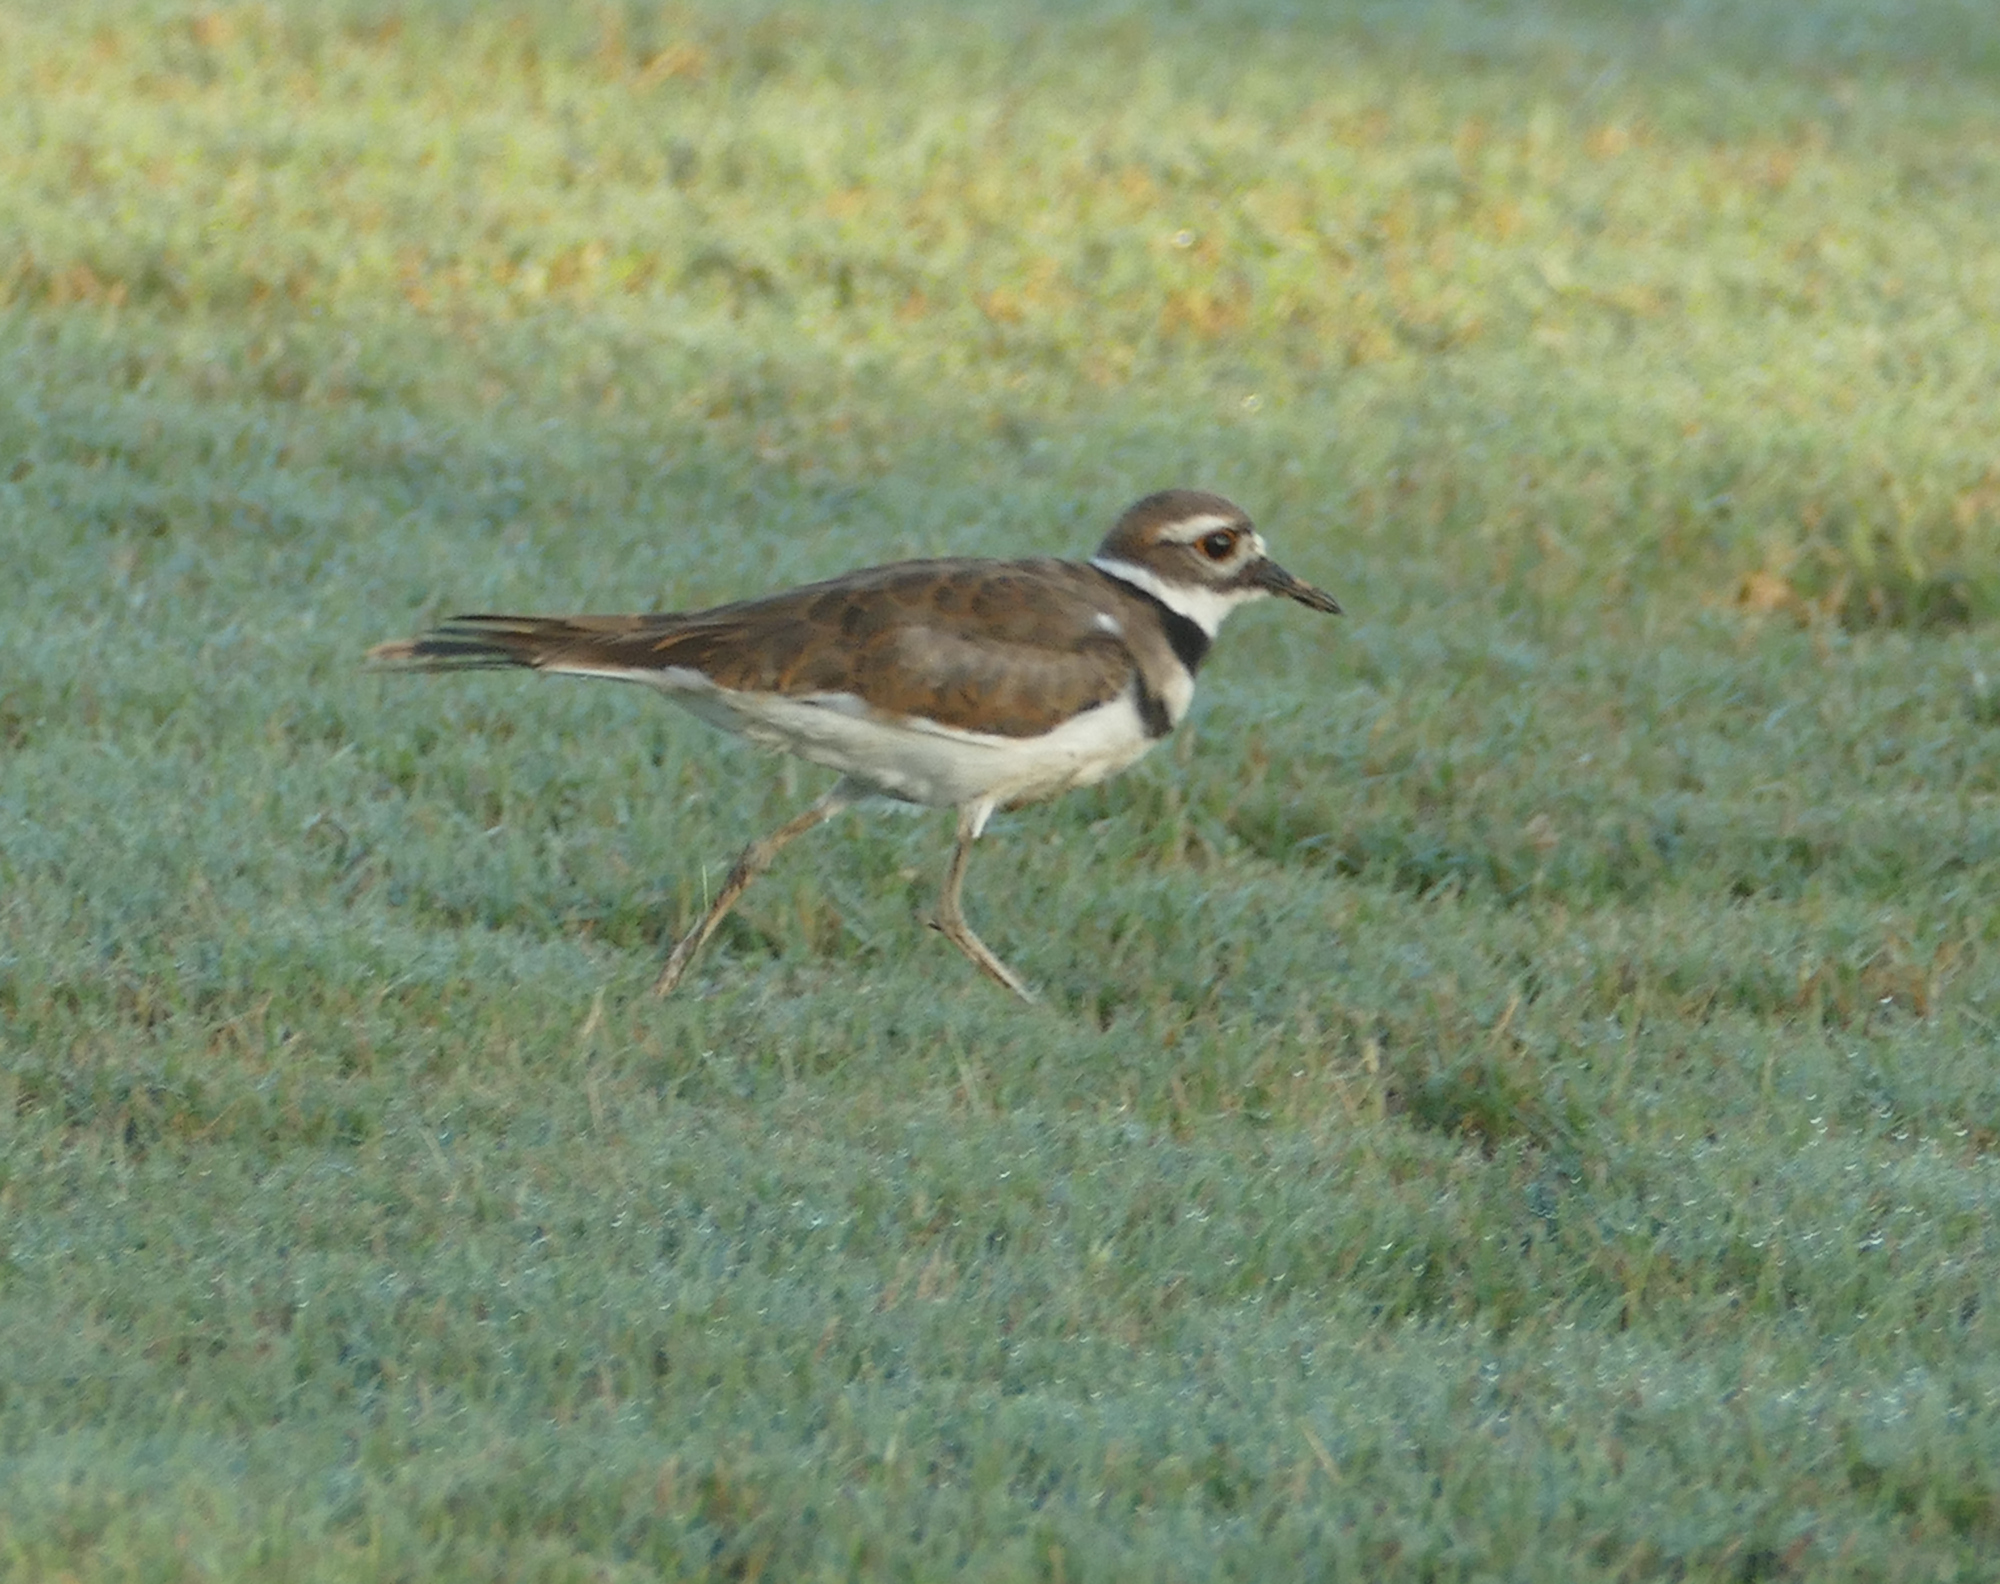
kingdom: Animalia
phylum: Chordata
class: Aves
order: Charadriiformes
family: Charadriidae
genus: Charadrius
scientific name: Charadrius vociferus
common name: Killdeer
